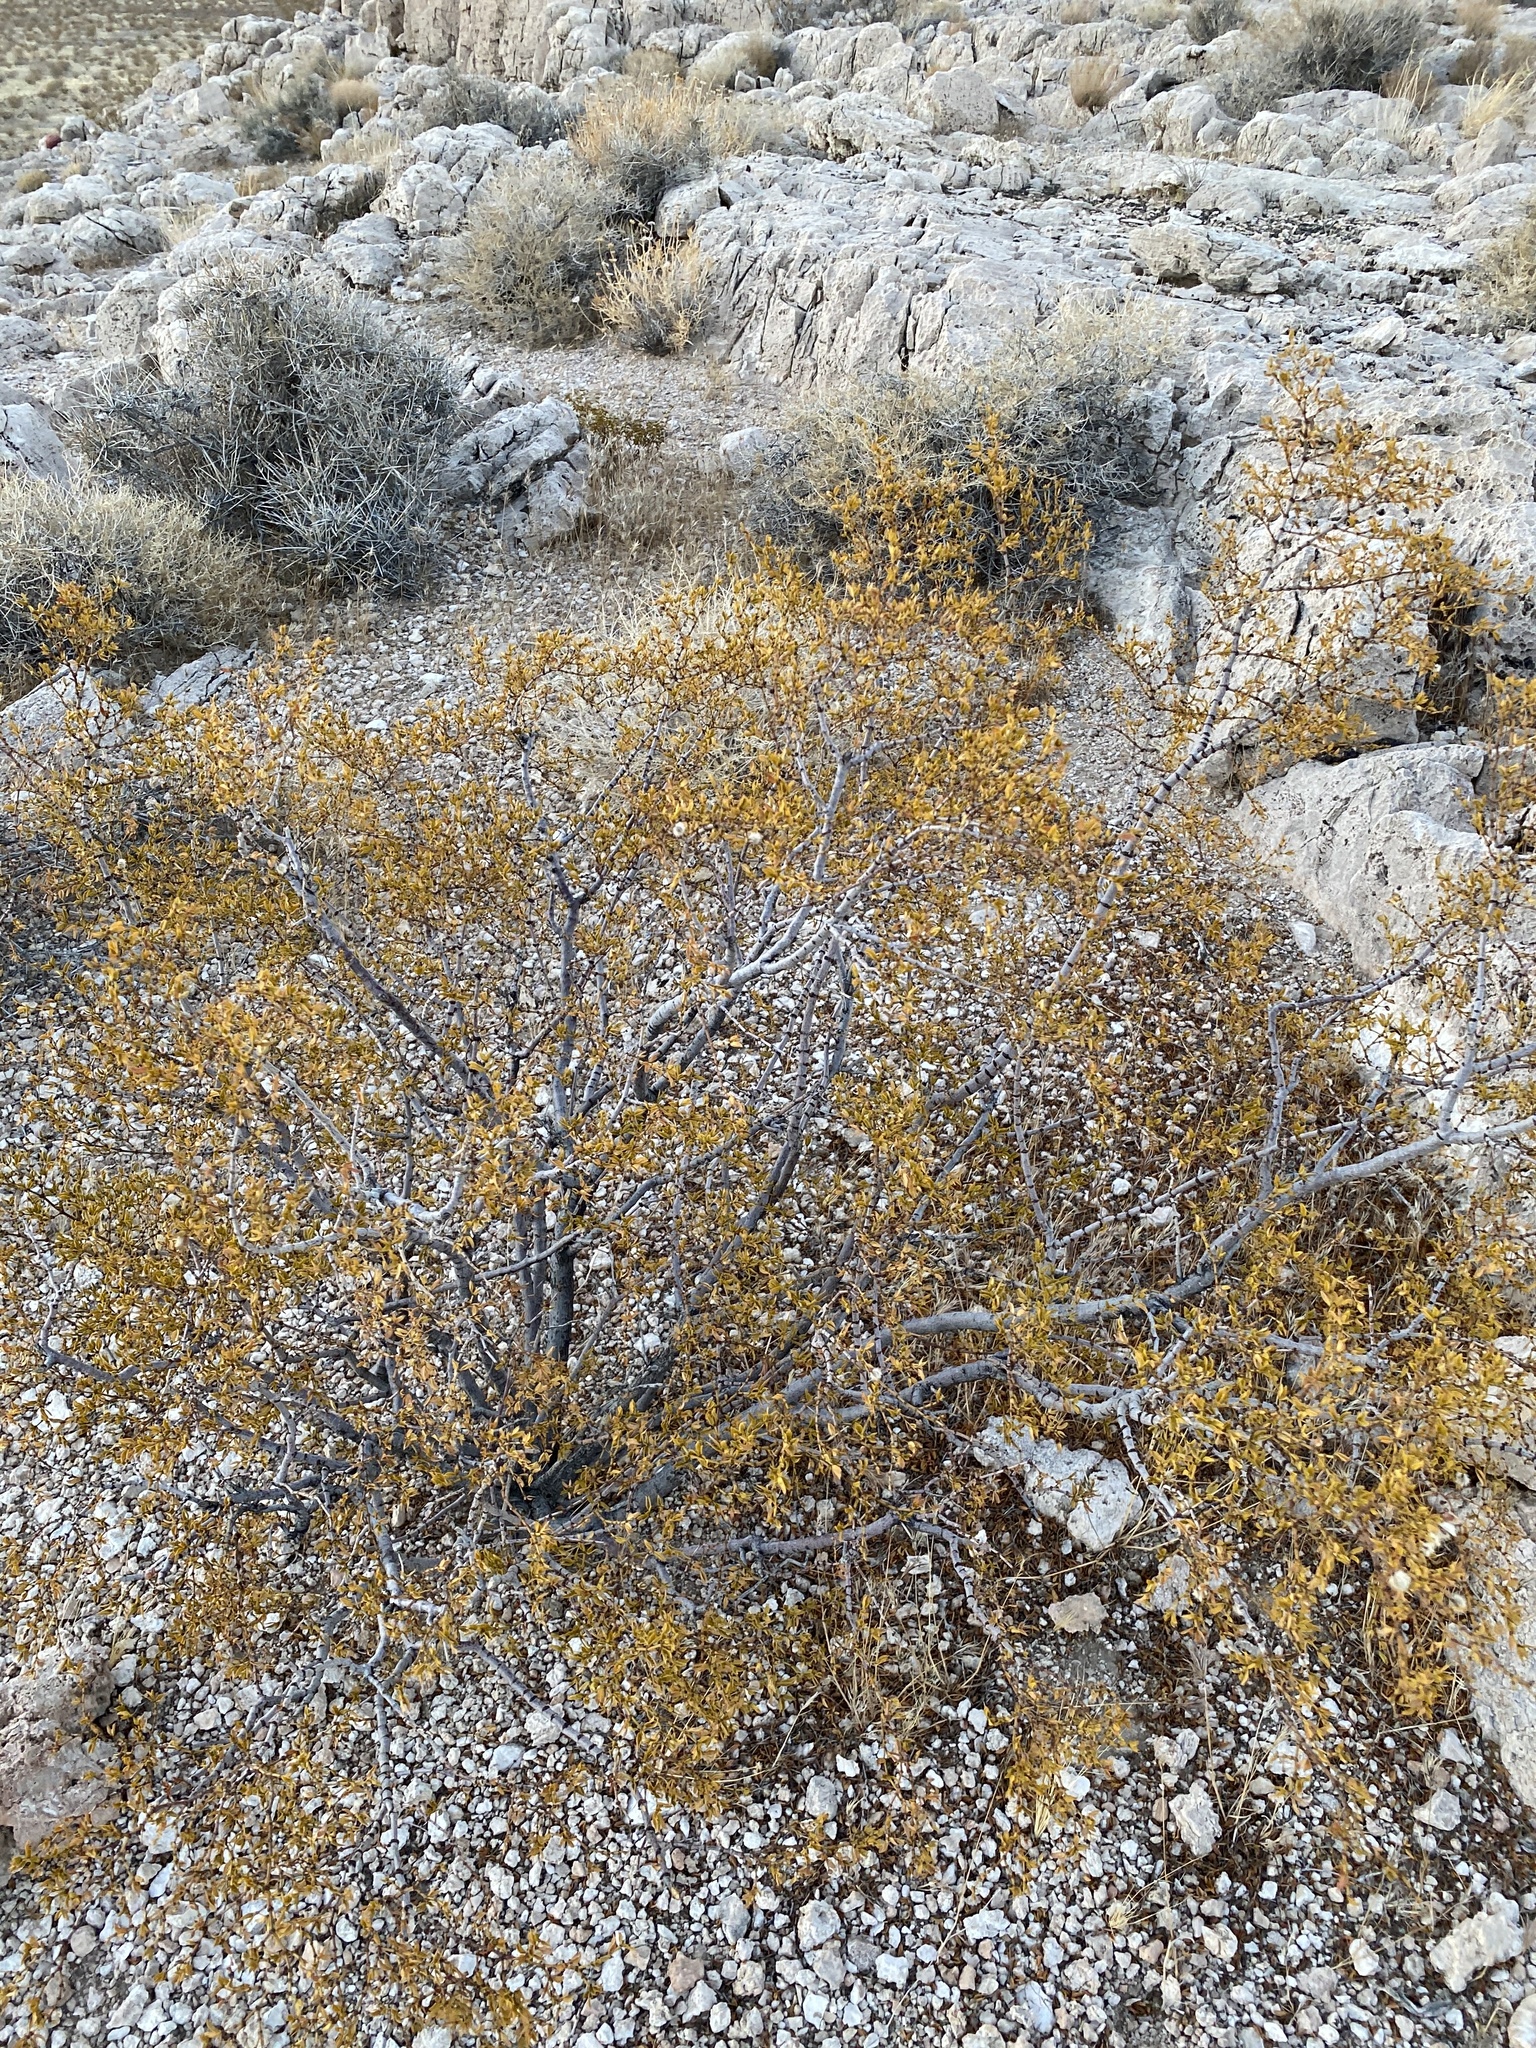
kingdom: Plantae
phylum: Tracheophyta
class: Magnoliopsida
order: Zygophyllales
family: Zygophyllaceae
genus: Larrea
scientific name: Larrea tridentata
